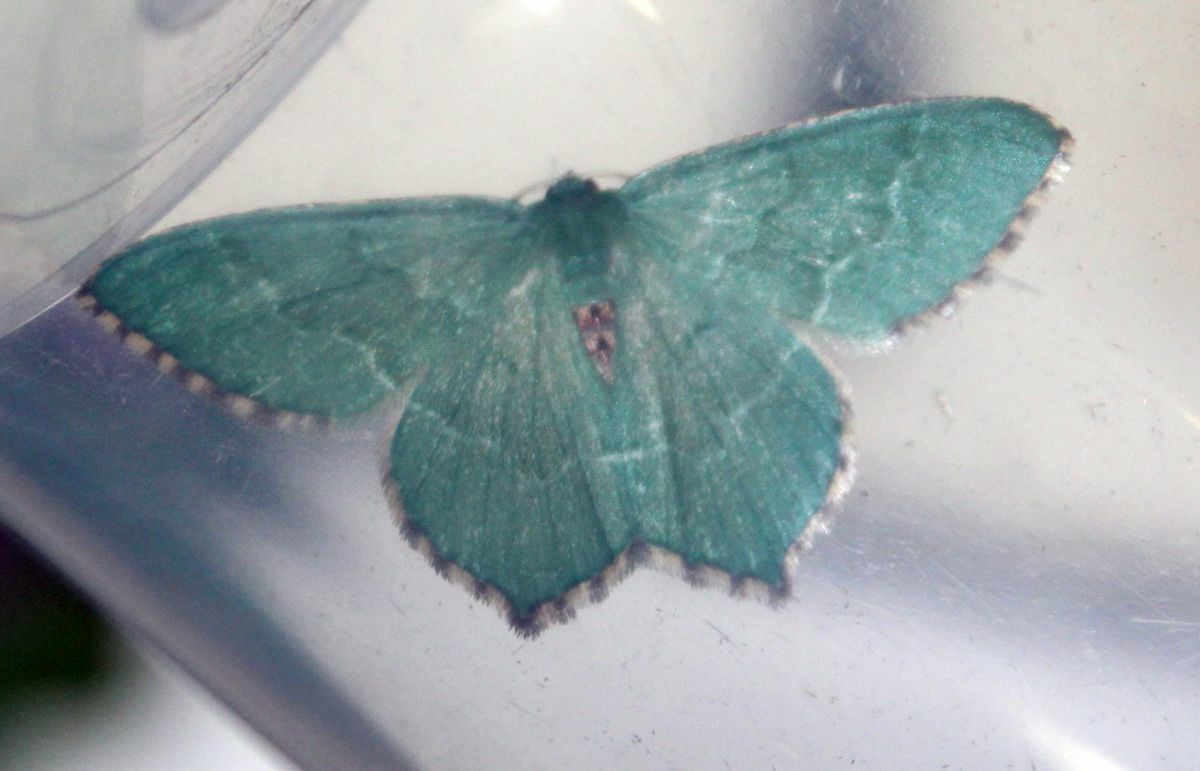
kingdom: Animalia
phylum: Arthropoda
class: Insecta
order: Lepidoptera
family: Geometridae
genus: Hemithea
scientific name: Hemithea aestivaria
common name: Common emerald
